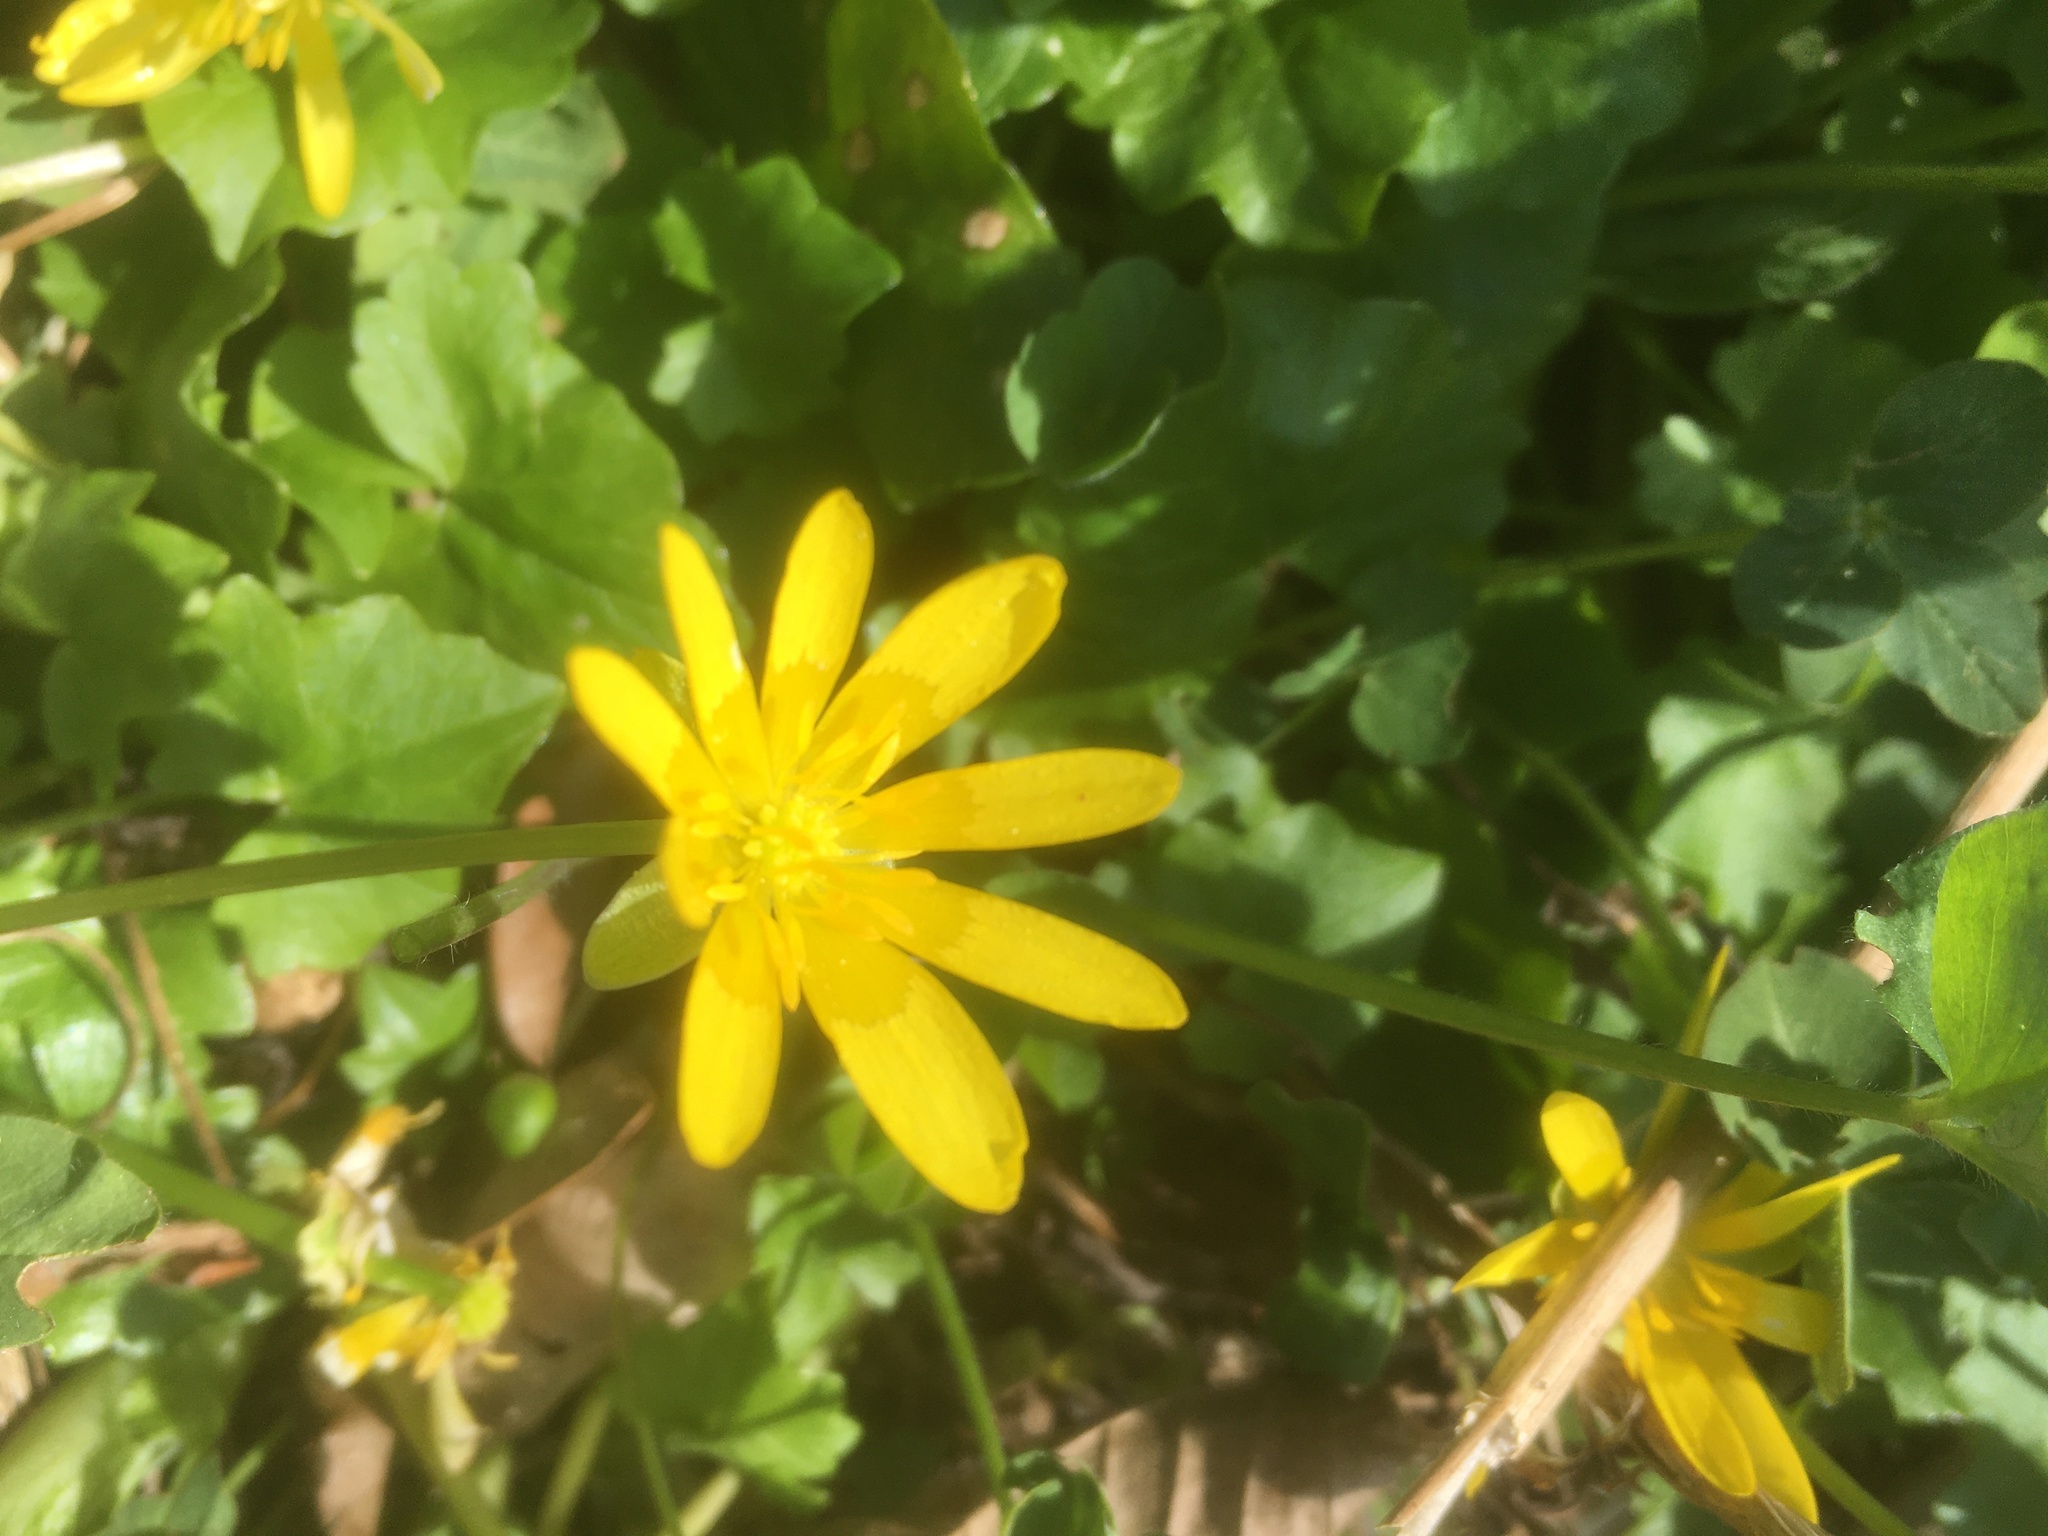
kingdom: Plantae
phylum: Tracheophyta
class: Magnoliopsida
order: Ranunculales
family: Ranunculaceae
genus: Ficaria
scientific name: Ficaria verna
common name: Lesser celandine
